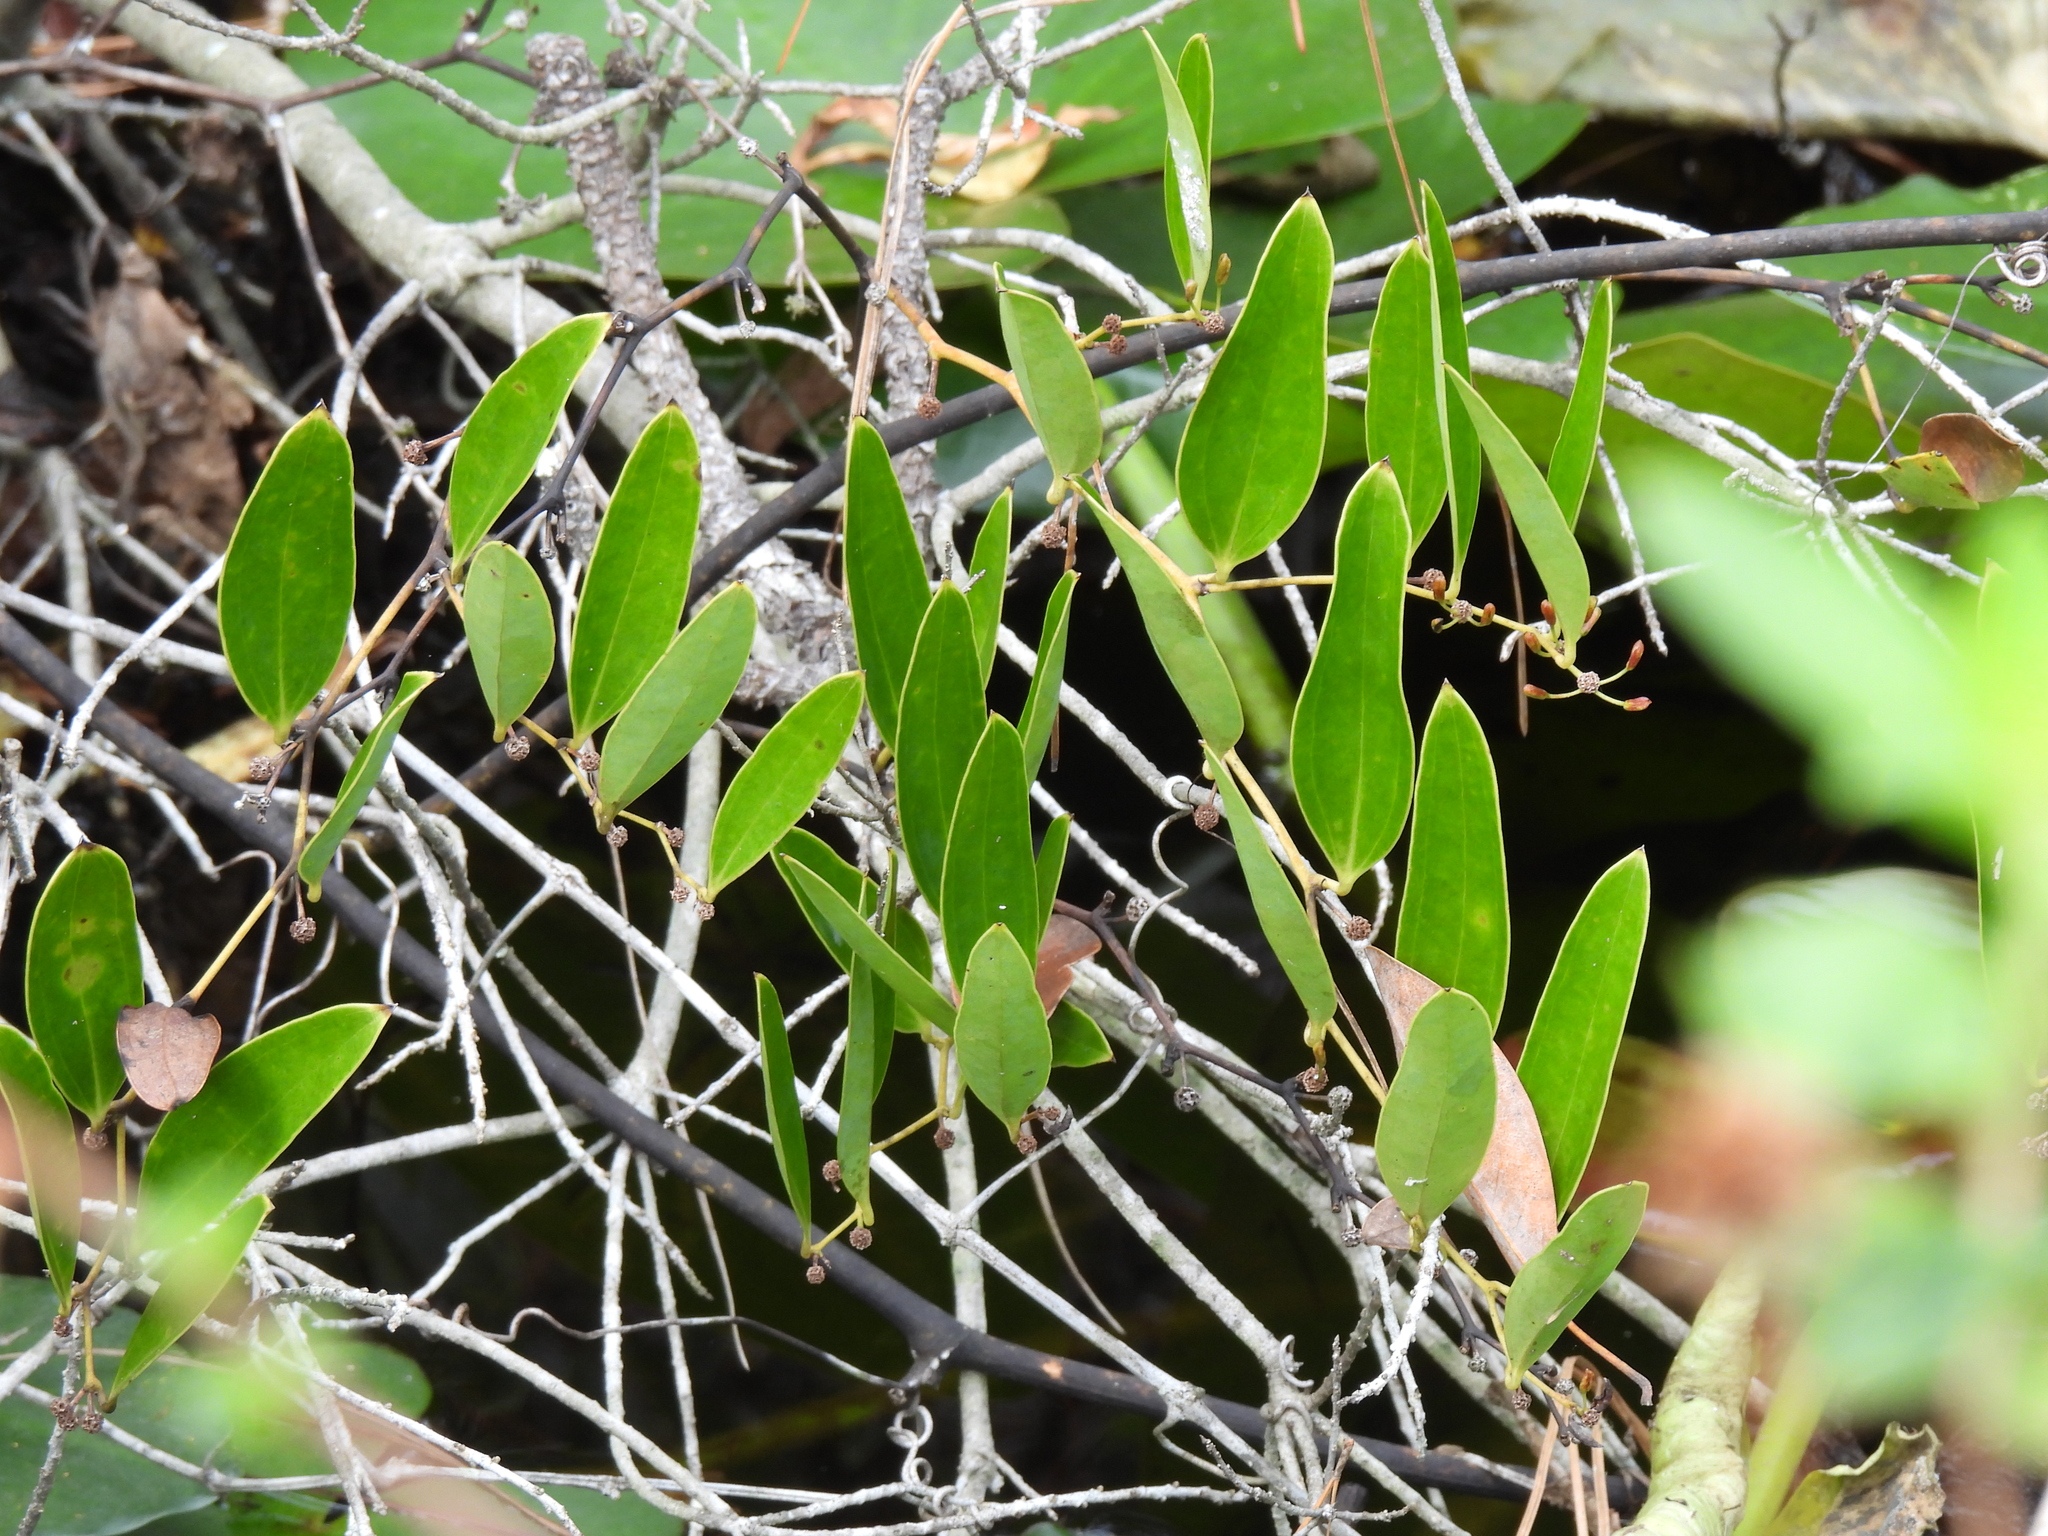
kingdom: Plantae
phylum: Tracheophyta
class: Liliopsida
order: Liliales
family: Smilacaceae
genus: Smilax
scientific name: Smilax laurifolia
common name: Bamboovine
